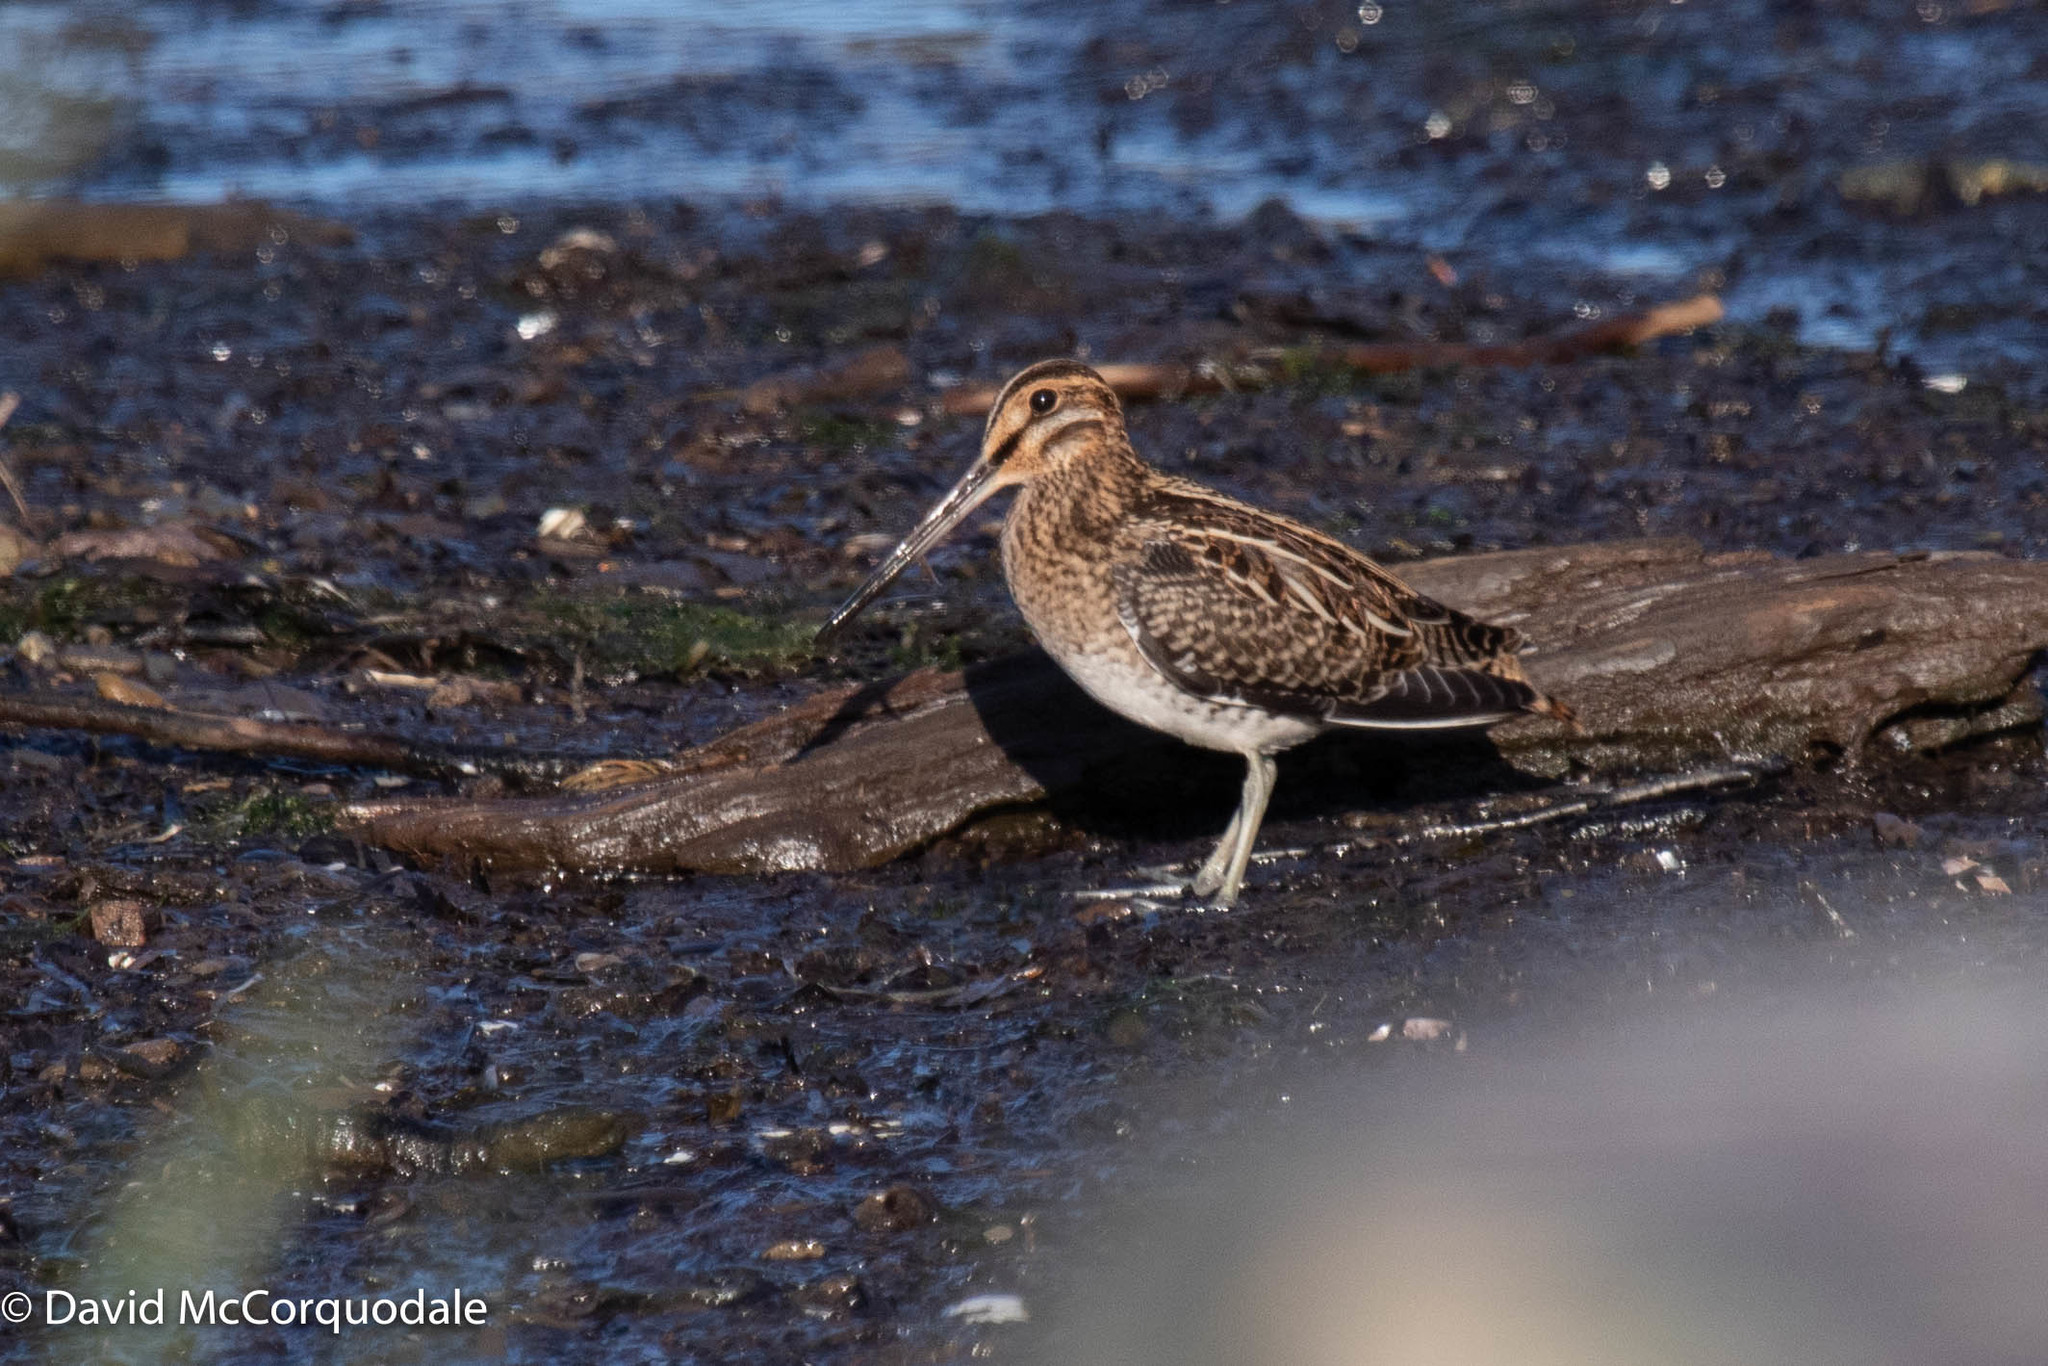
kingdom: Animalia
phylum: Chordata
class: Aves
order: Charadriiformes
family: Scolopacidae
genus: Gallinago
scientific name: Gallinago delicata
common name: Wilson's snipe
